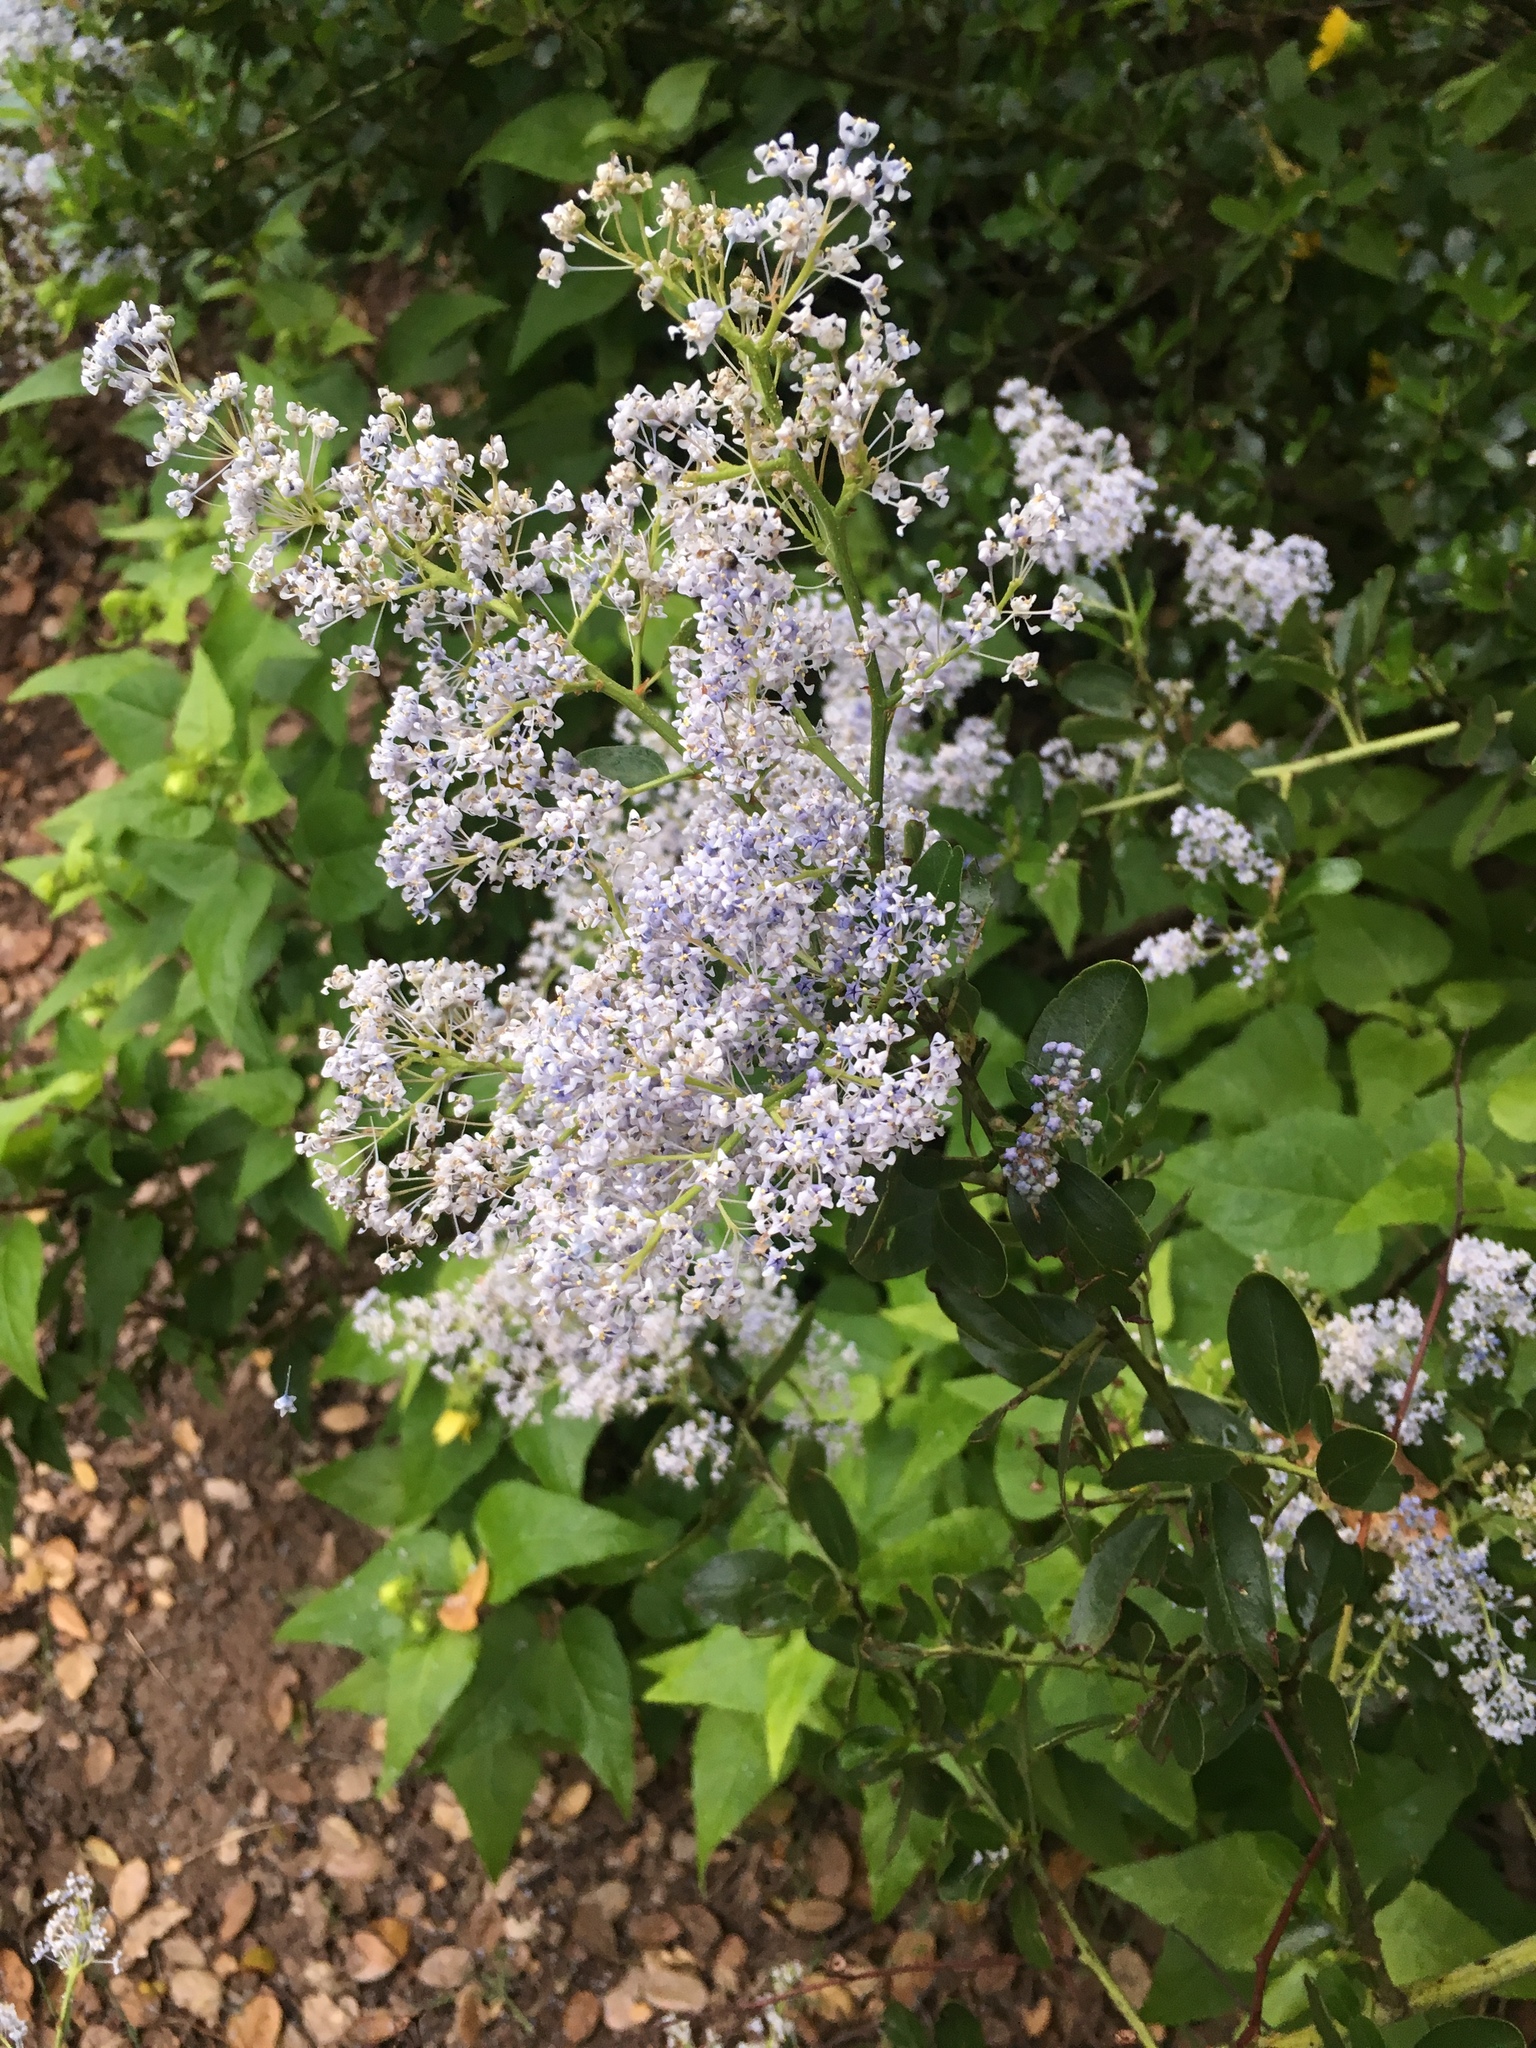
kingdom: Plantae
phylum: Tracheophyta
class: Magnoliopsida
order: Rosales
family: Rhamnaceae
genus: Ceanothus
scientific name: Ceanothus spinosus
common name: Greenbark whitethorn
